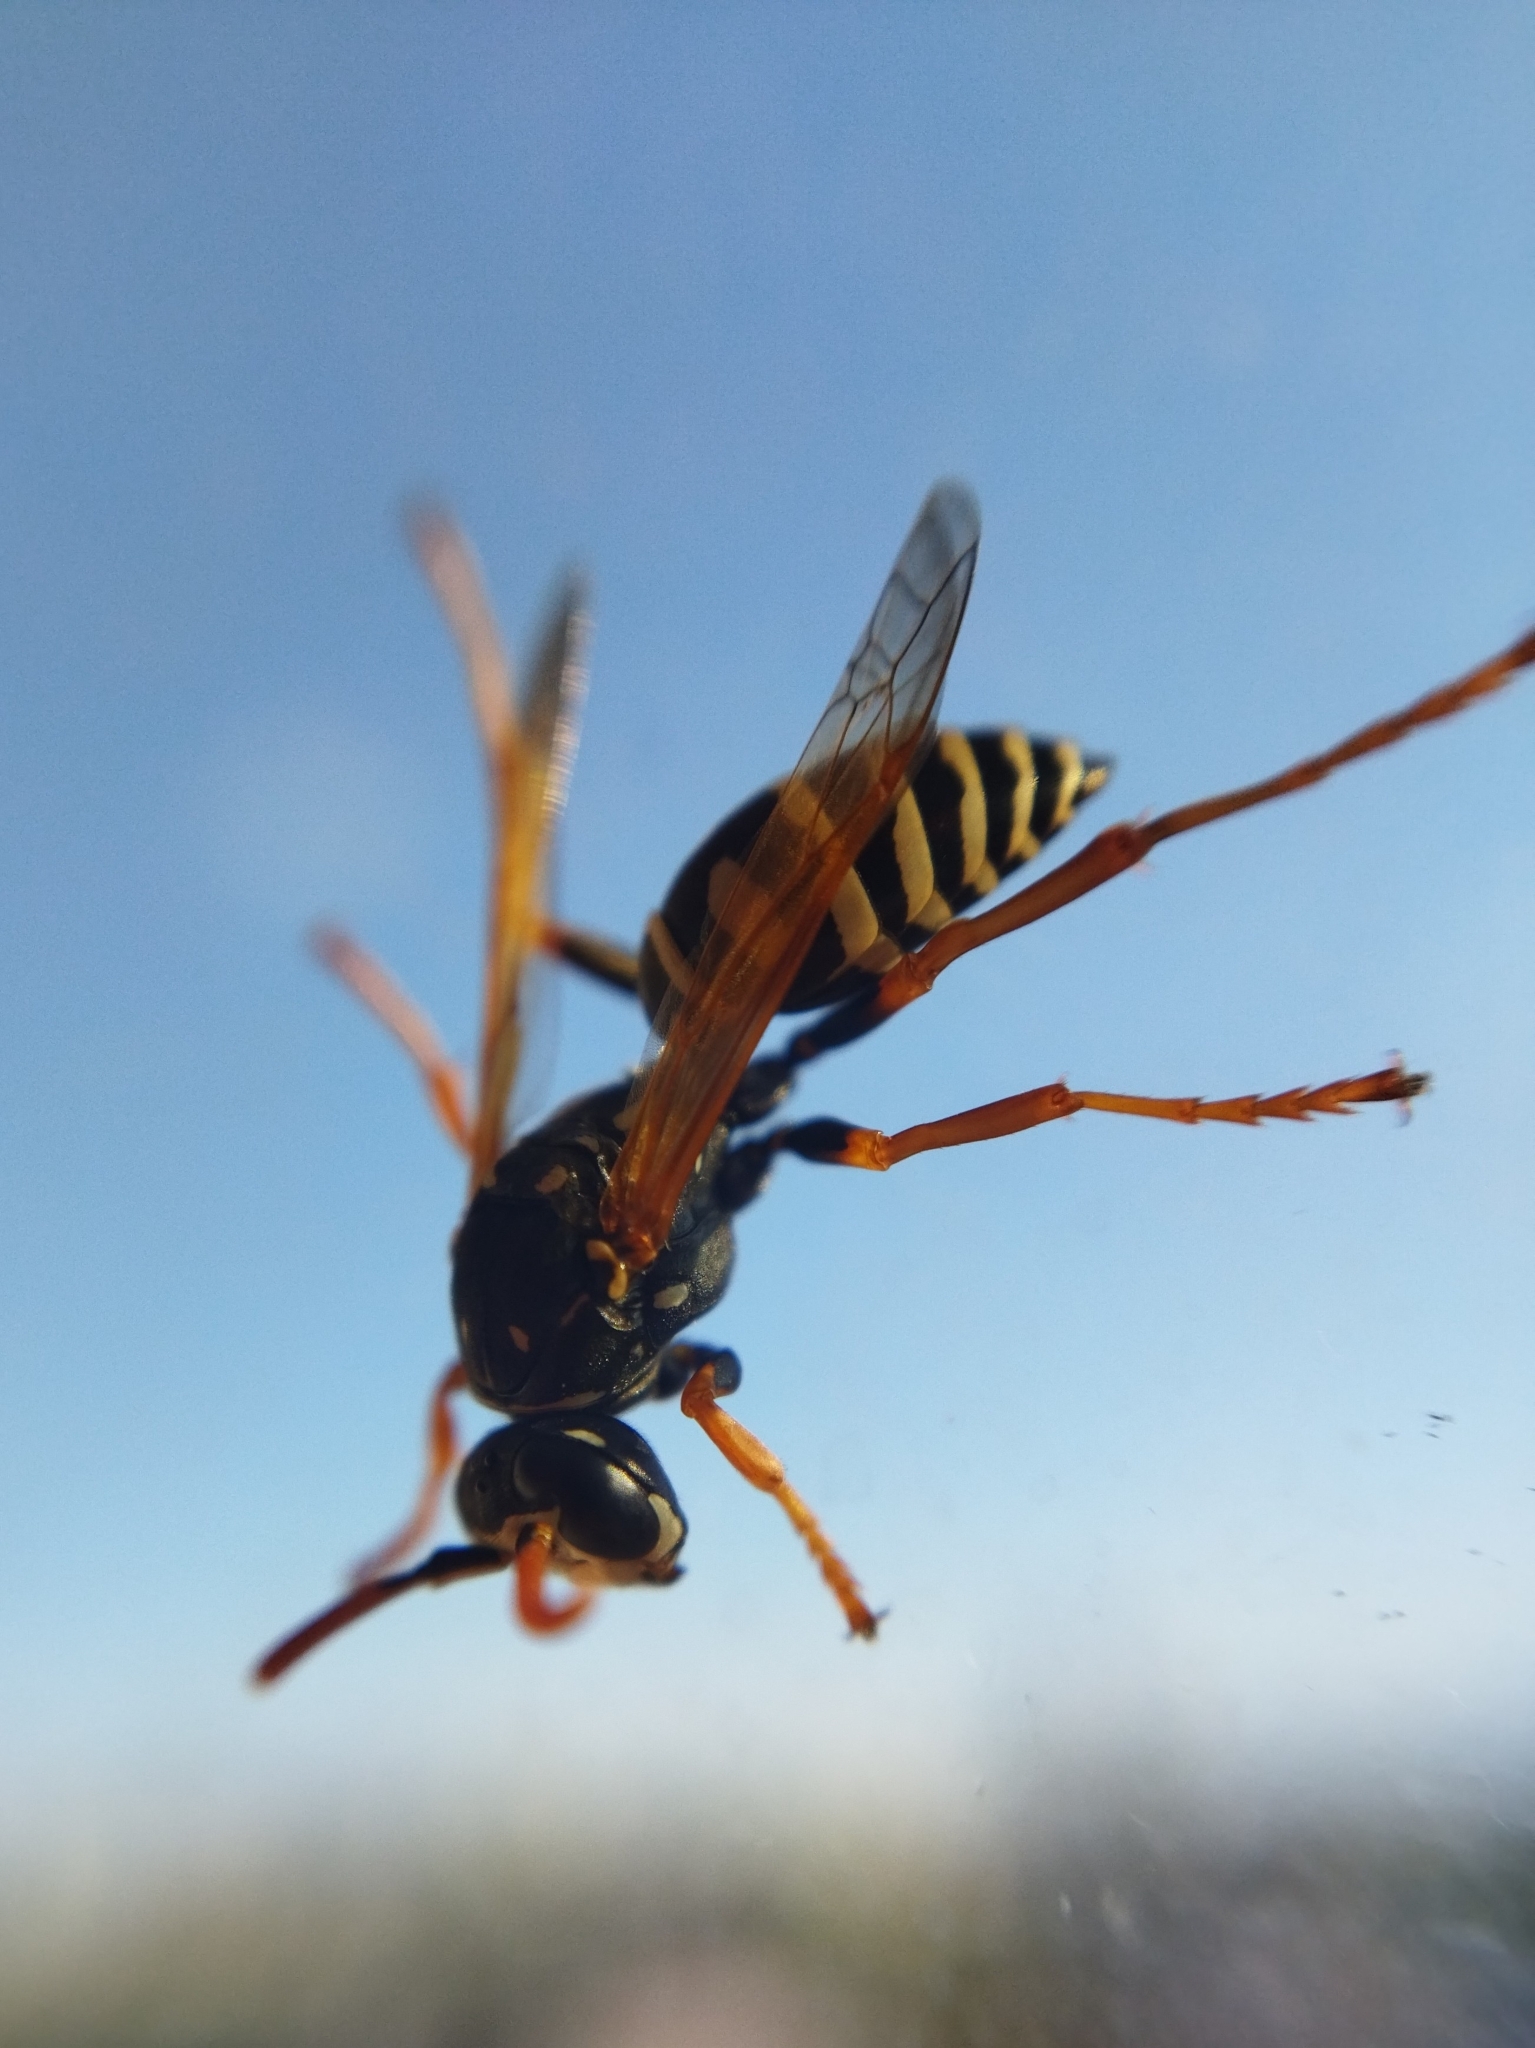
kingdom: Animalia
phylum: Arthropoda
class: Insecta
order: Hymenoptera
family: Eumenidae
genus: Polistes
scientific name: Polistes dominula
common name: Paper wasp
